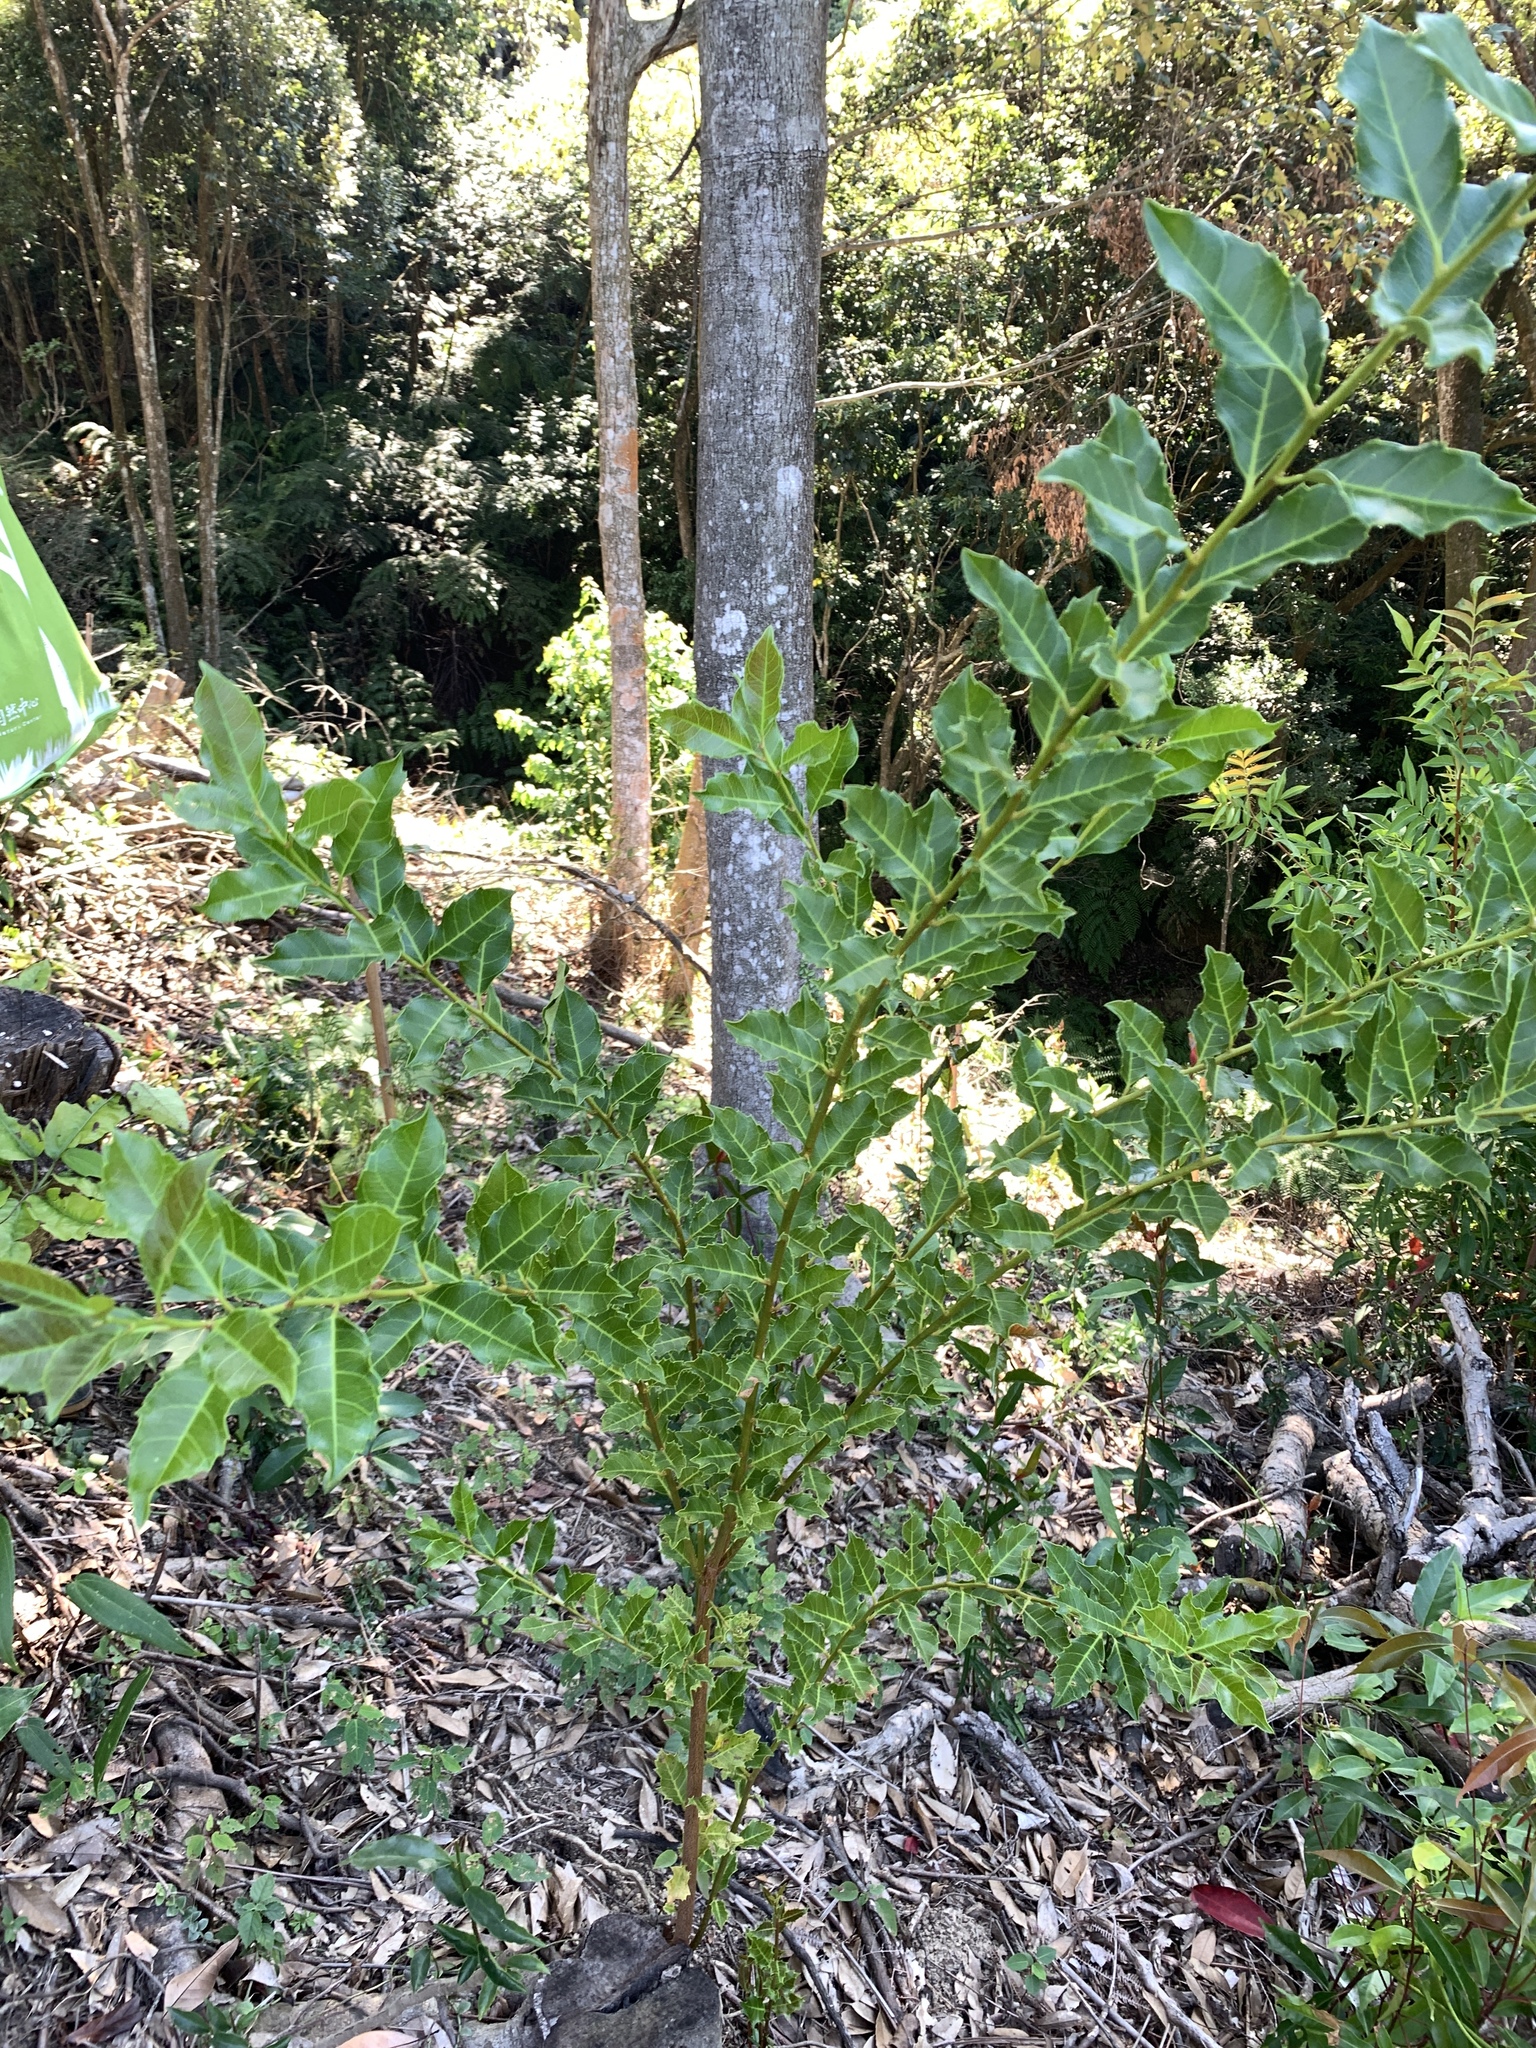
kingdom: Plantae
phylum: Tracheophyta
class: Magnoliopsida
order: Saxifragales
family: Iteaceae
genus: Itea
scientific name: Itea oldhamii
